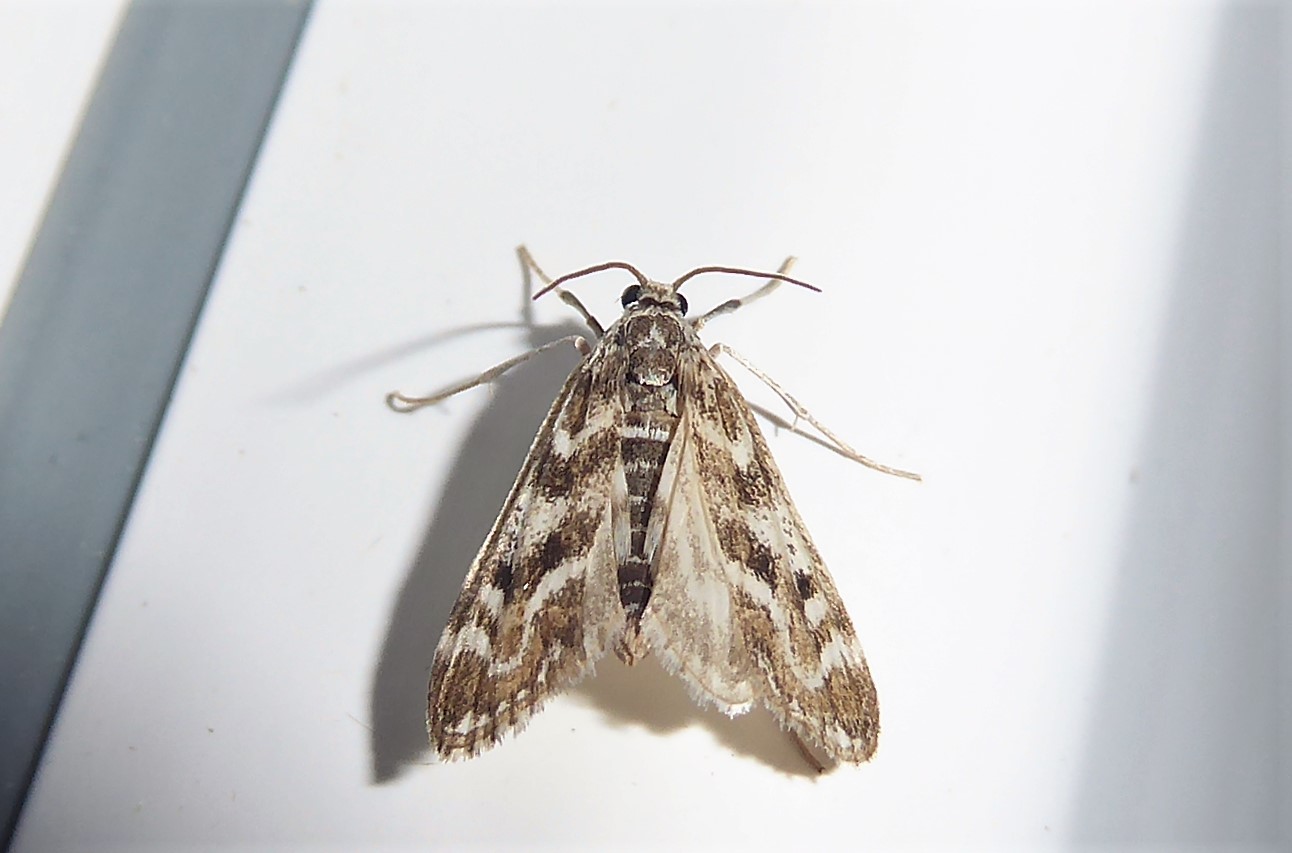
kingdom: Animalia
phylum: Arthropoda
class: Insecta
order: Lepidoptera
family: Crambidae
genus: Hygraula
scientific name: Hygraula nitens
